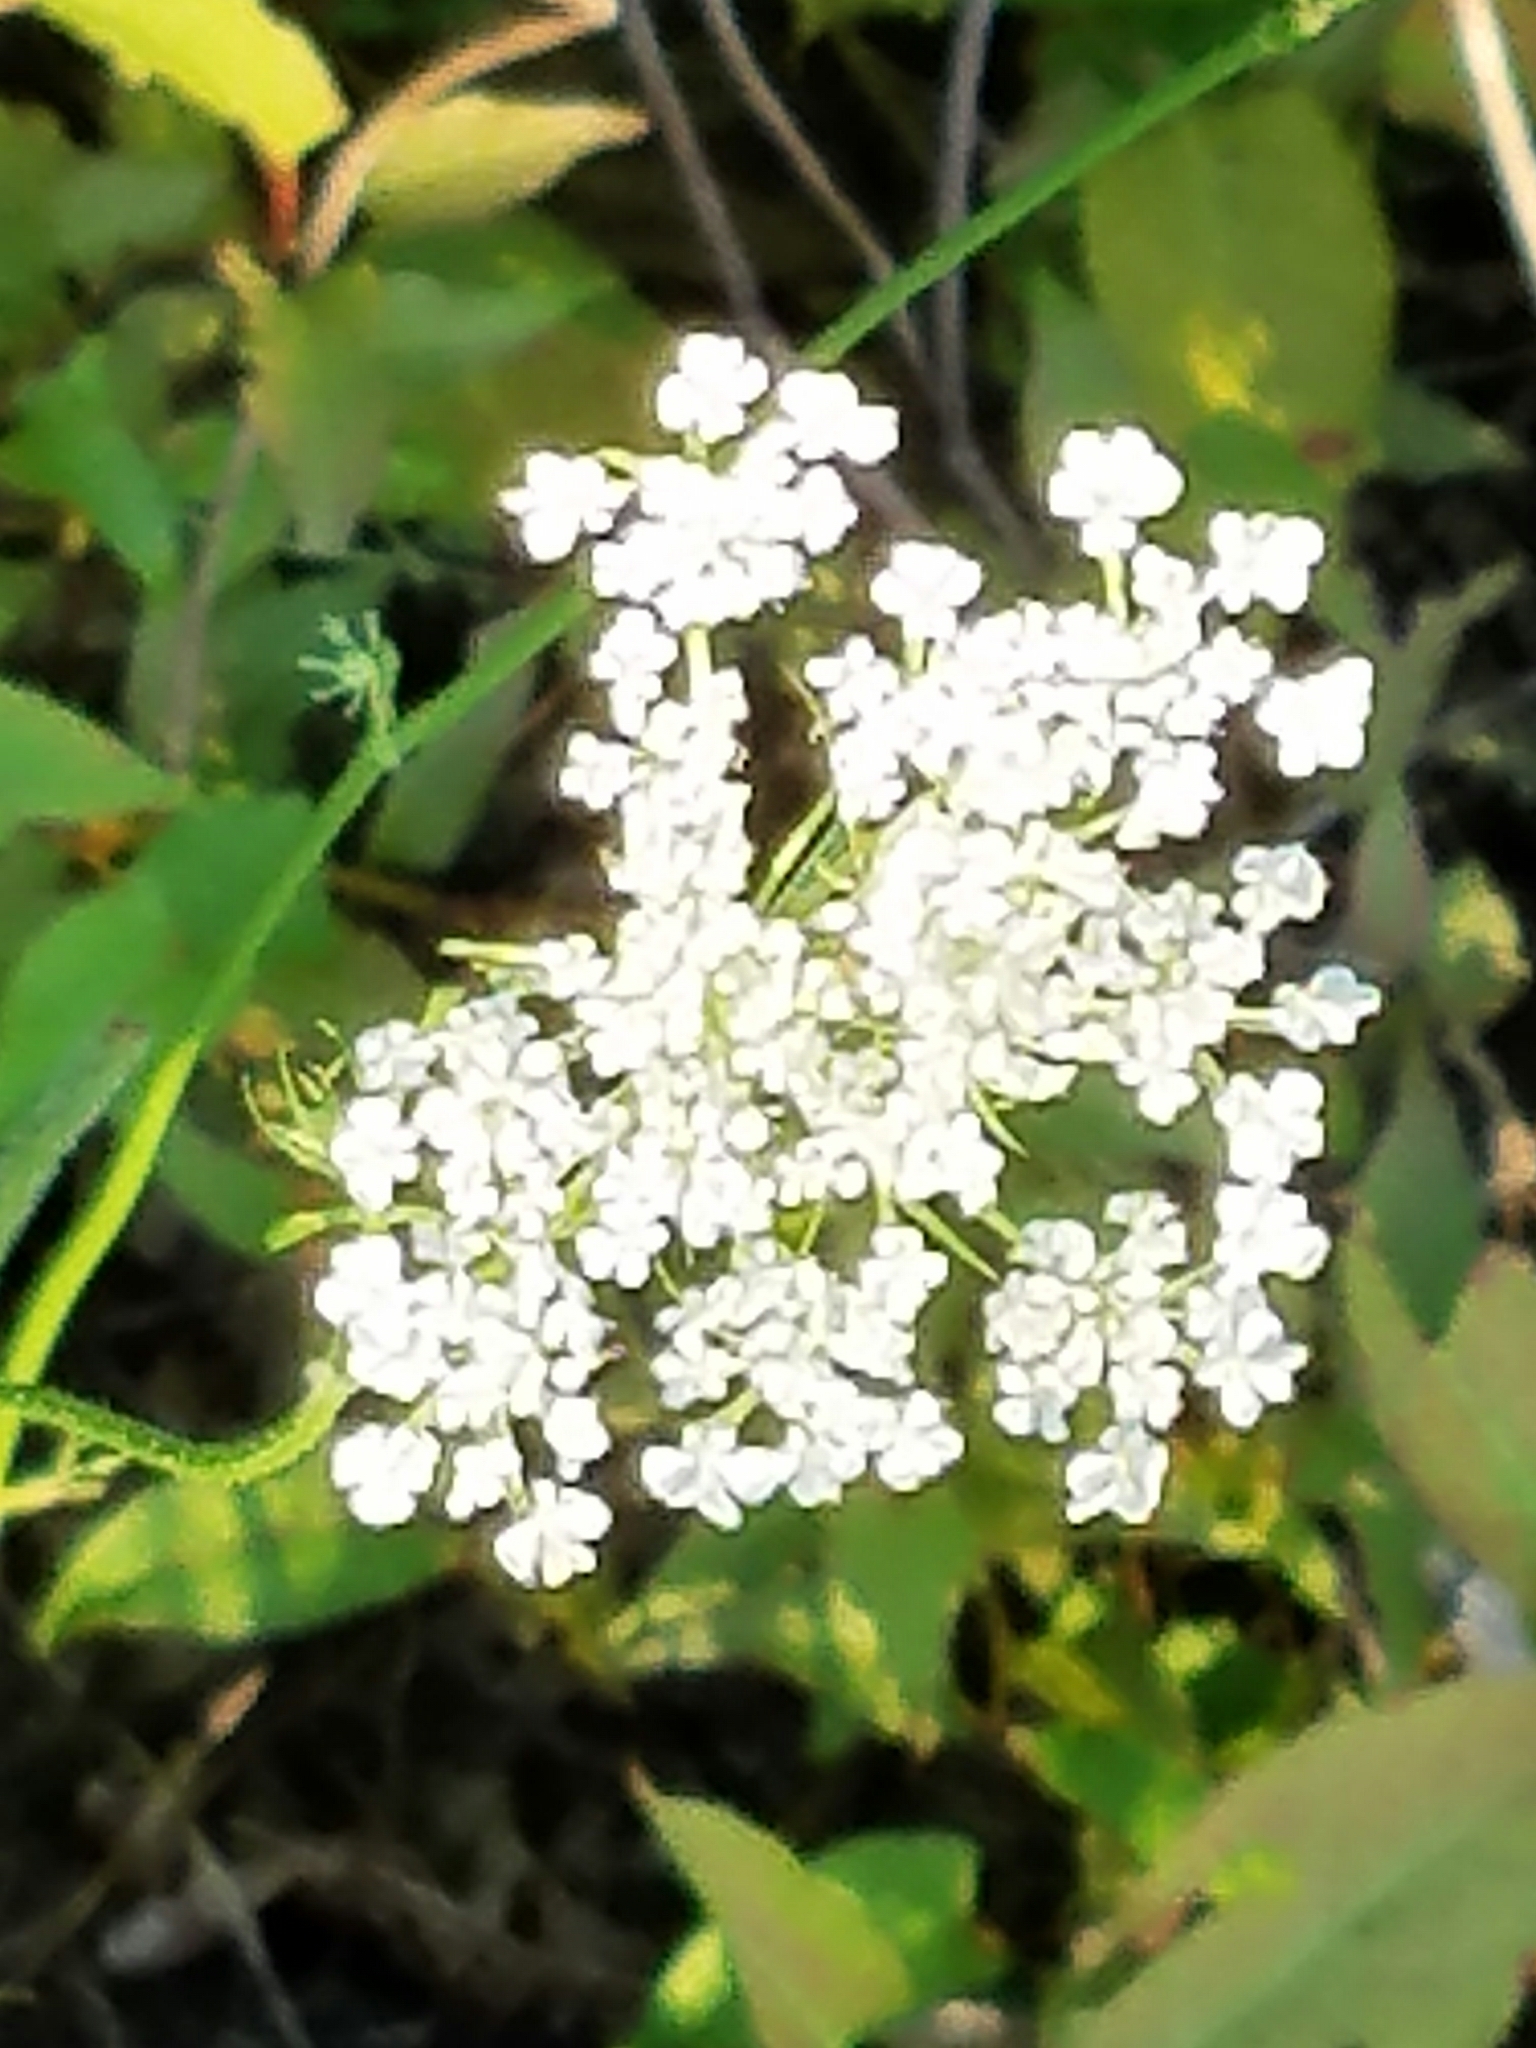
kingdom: Plantae
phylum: Tracheophyta
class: Magnoliopsida
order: Apiales
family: Apiaceae
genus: Daucus
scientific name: Daucus carota
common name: Wild carrot
